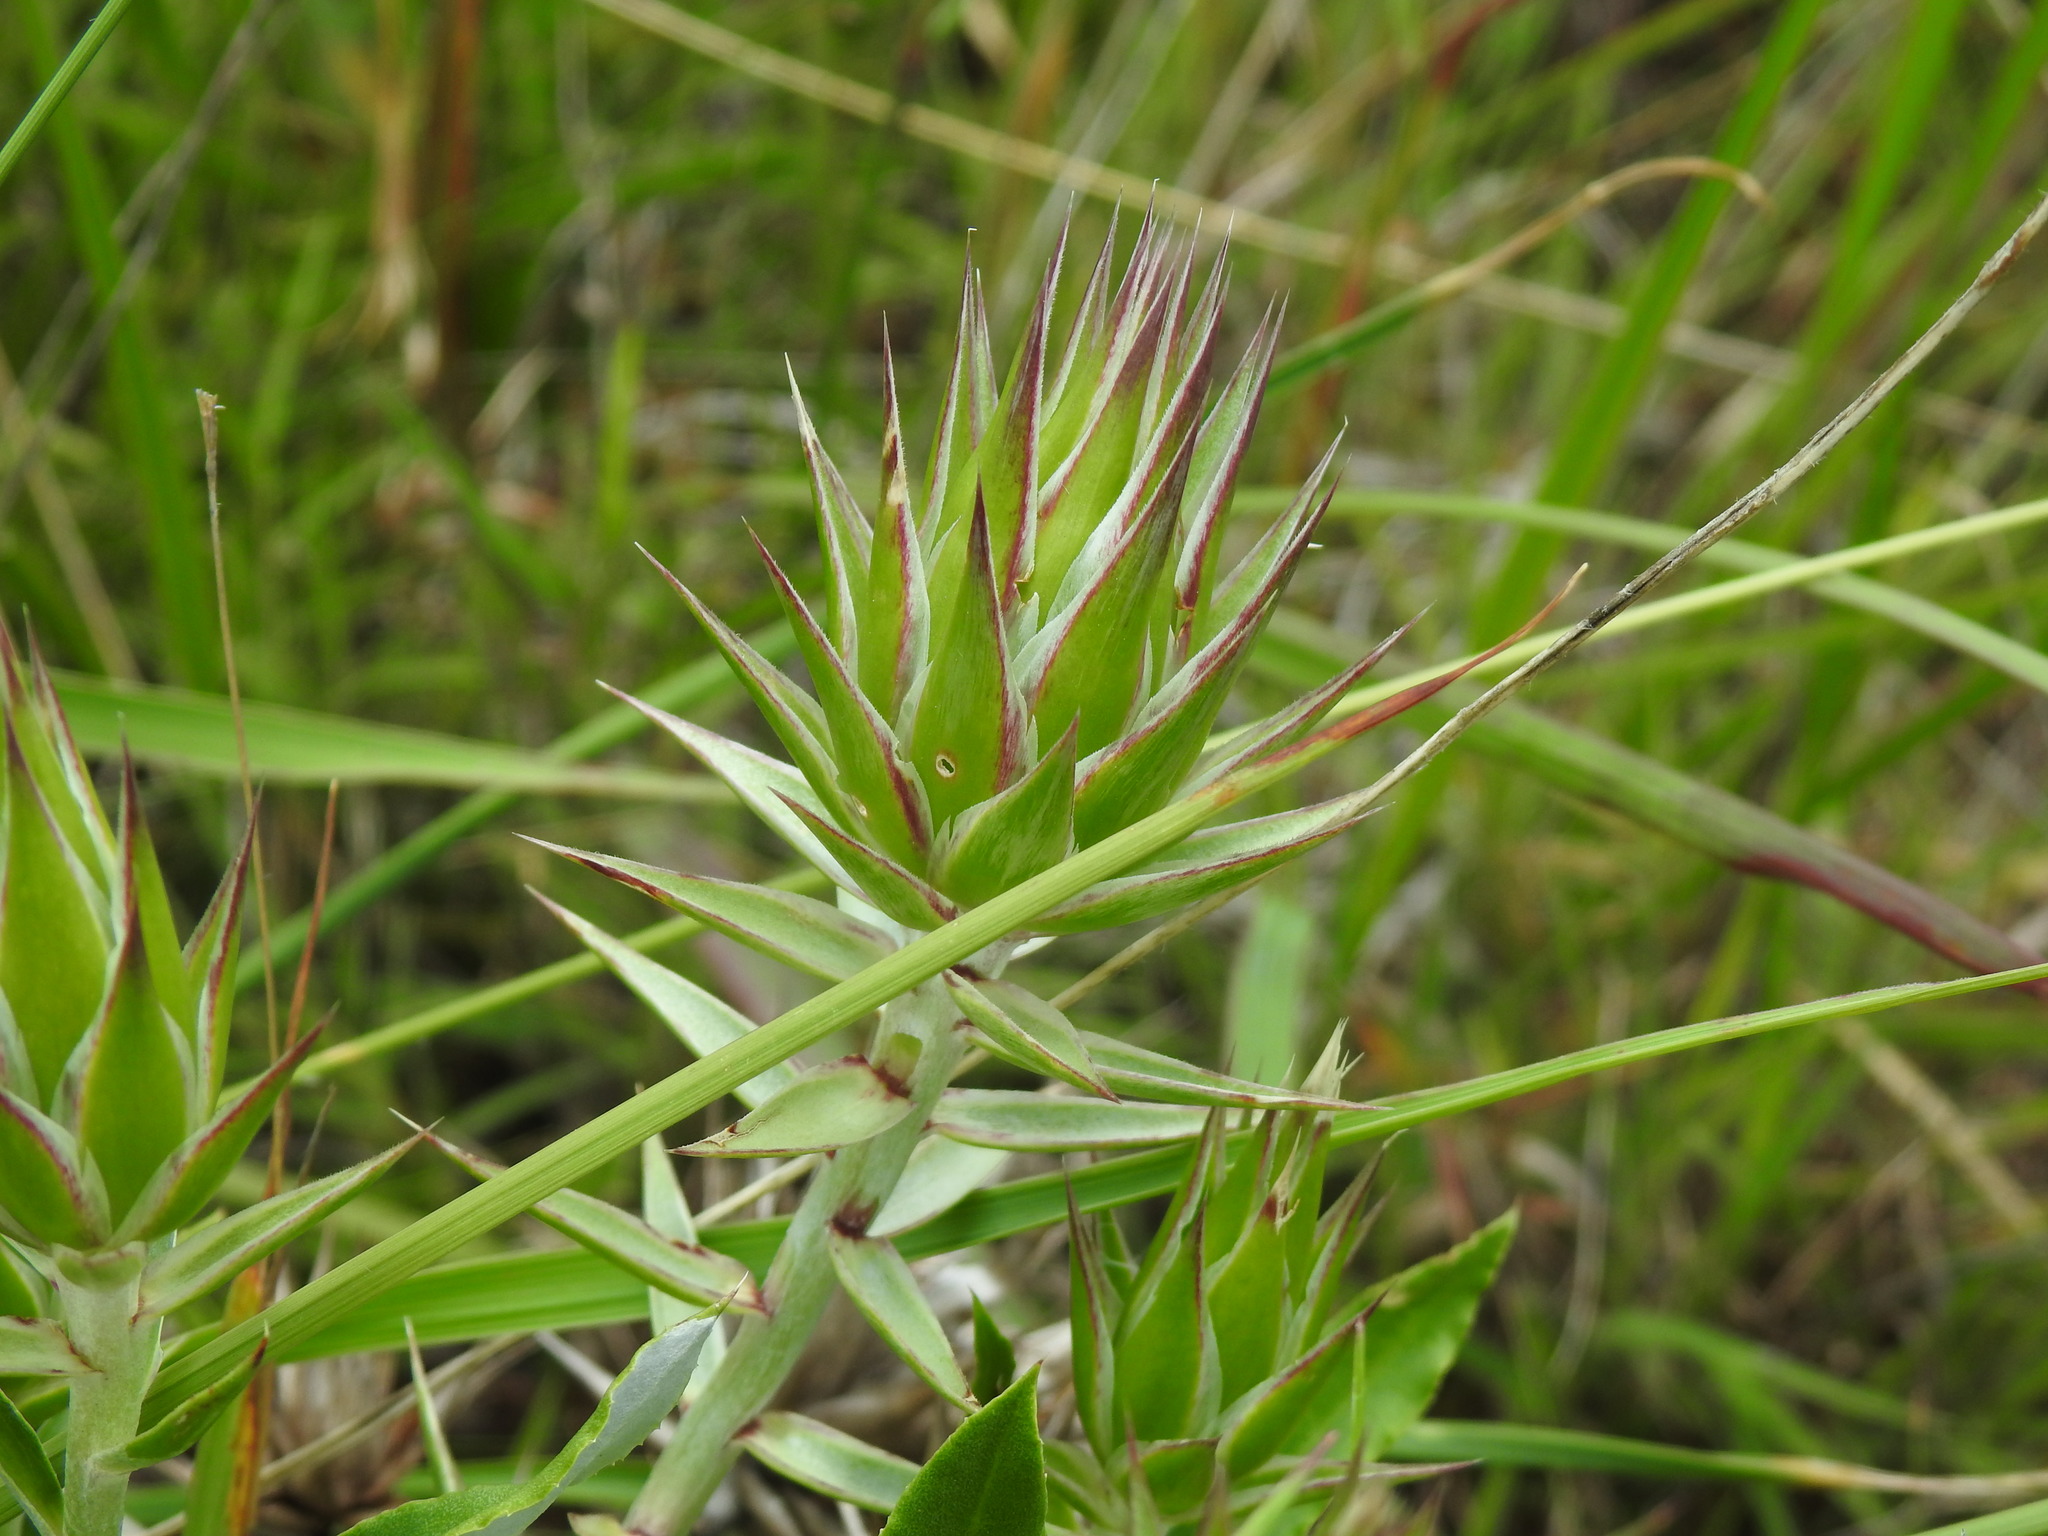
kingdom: Plantae
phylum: Tracheophyta
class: Magnoliopsida
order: Asterales
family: Asteraceae
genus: Macledium
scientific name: Macledium zeyheri
